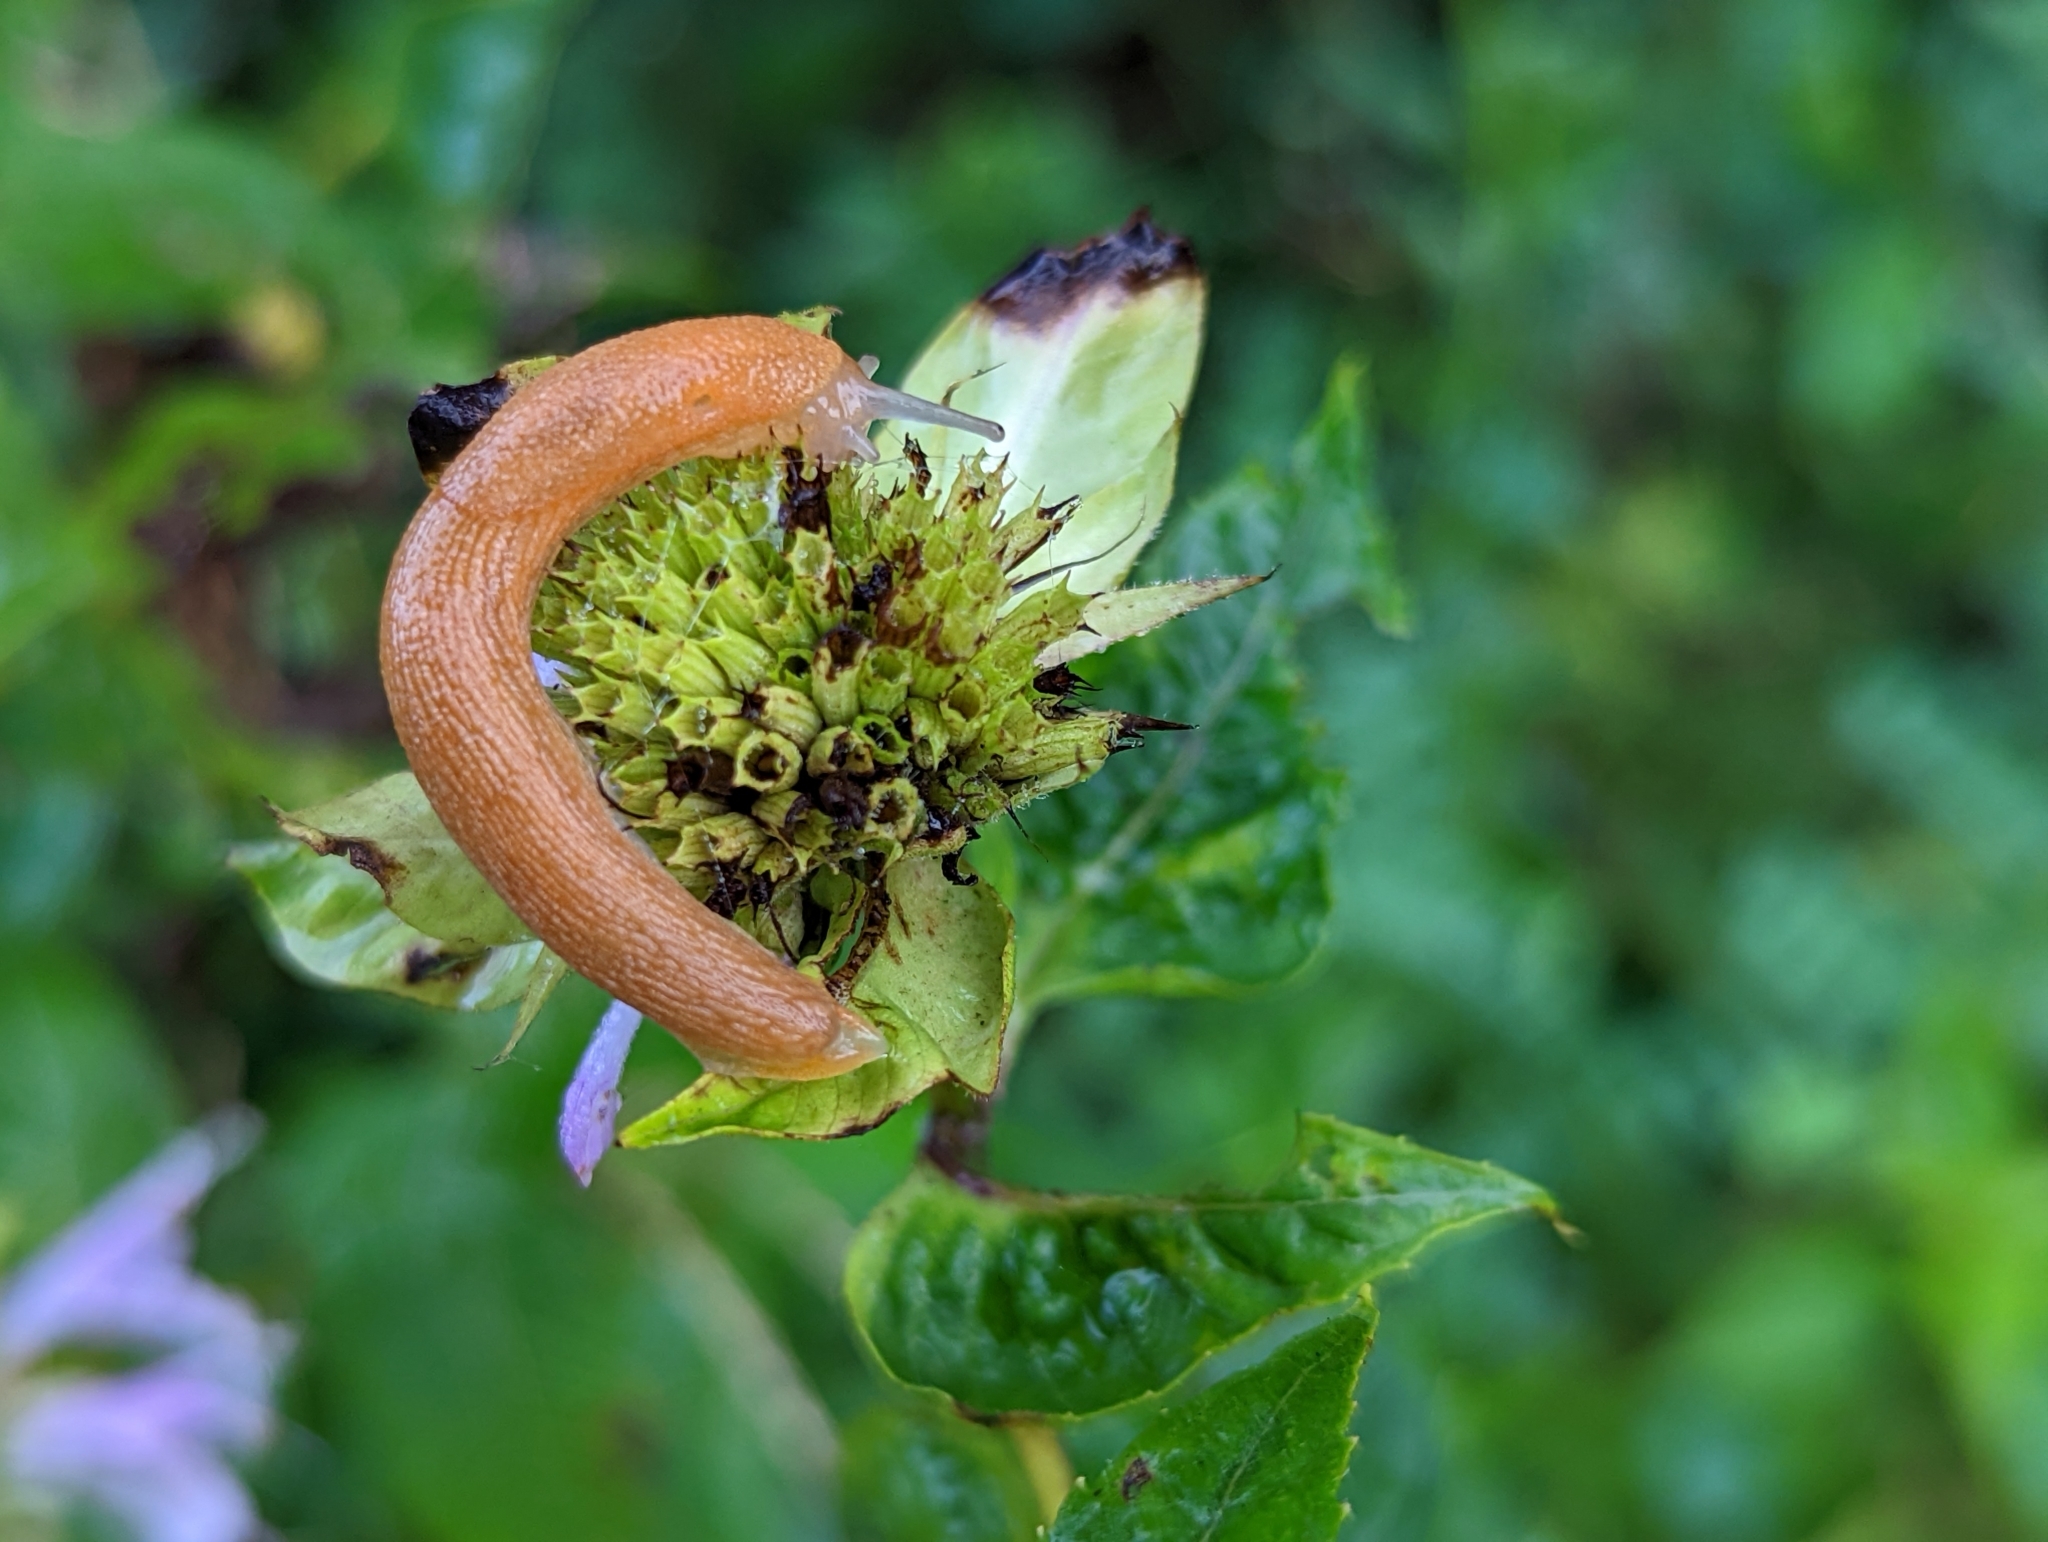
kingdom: Animalia
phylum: Mollusca
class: Gastropoda
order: Stylommatophora
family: Arionidae
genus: Mesarion
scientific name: Mesarion
